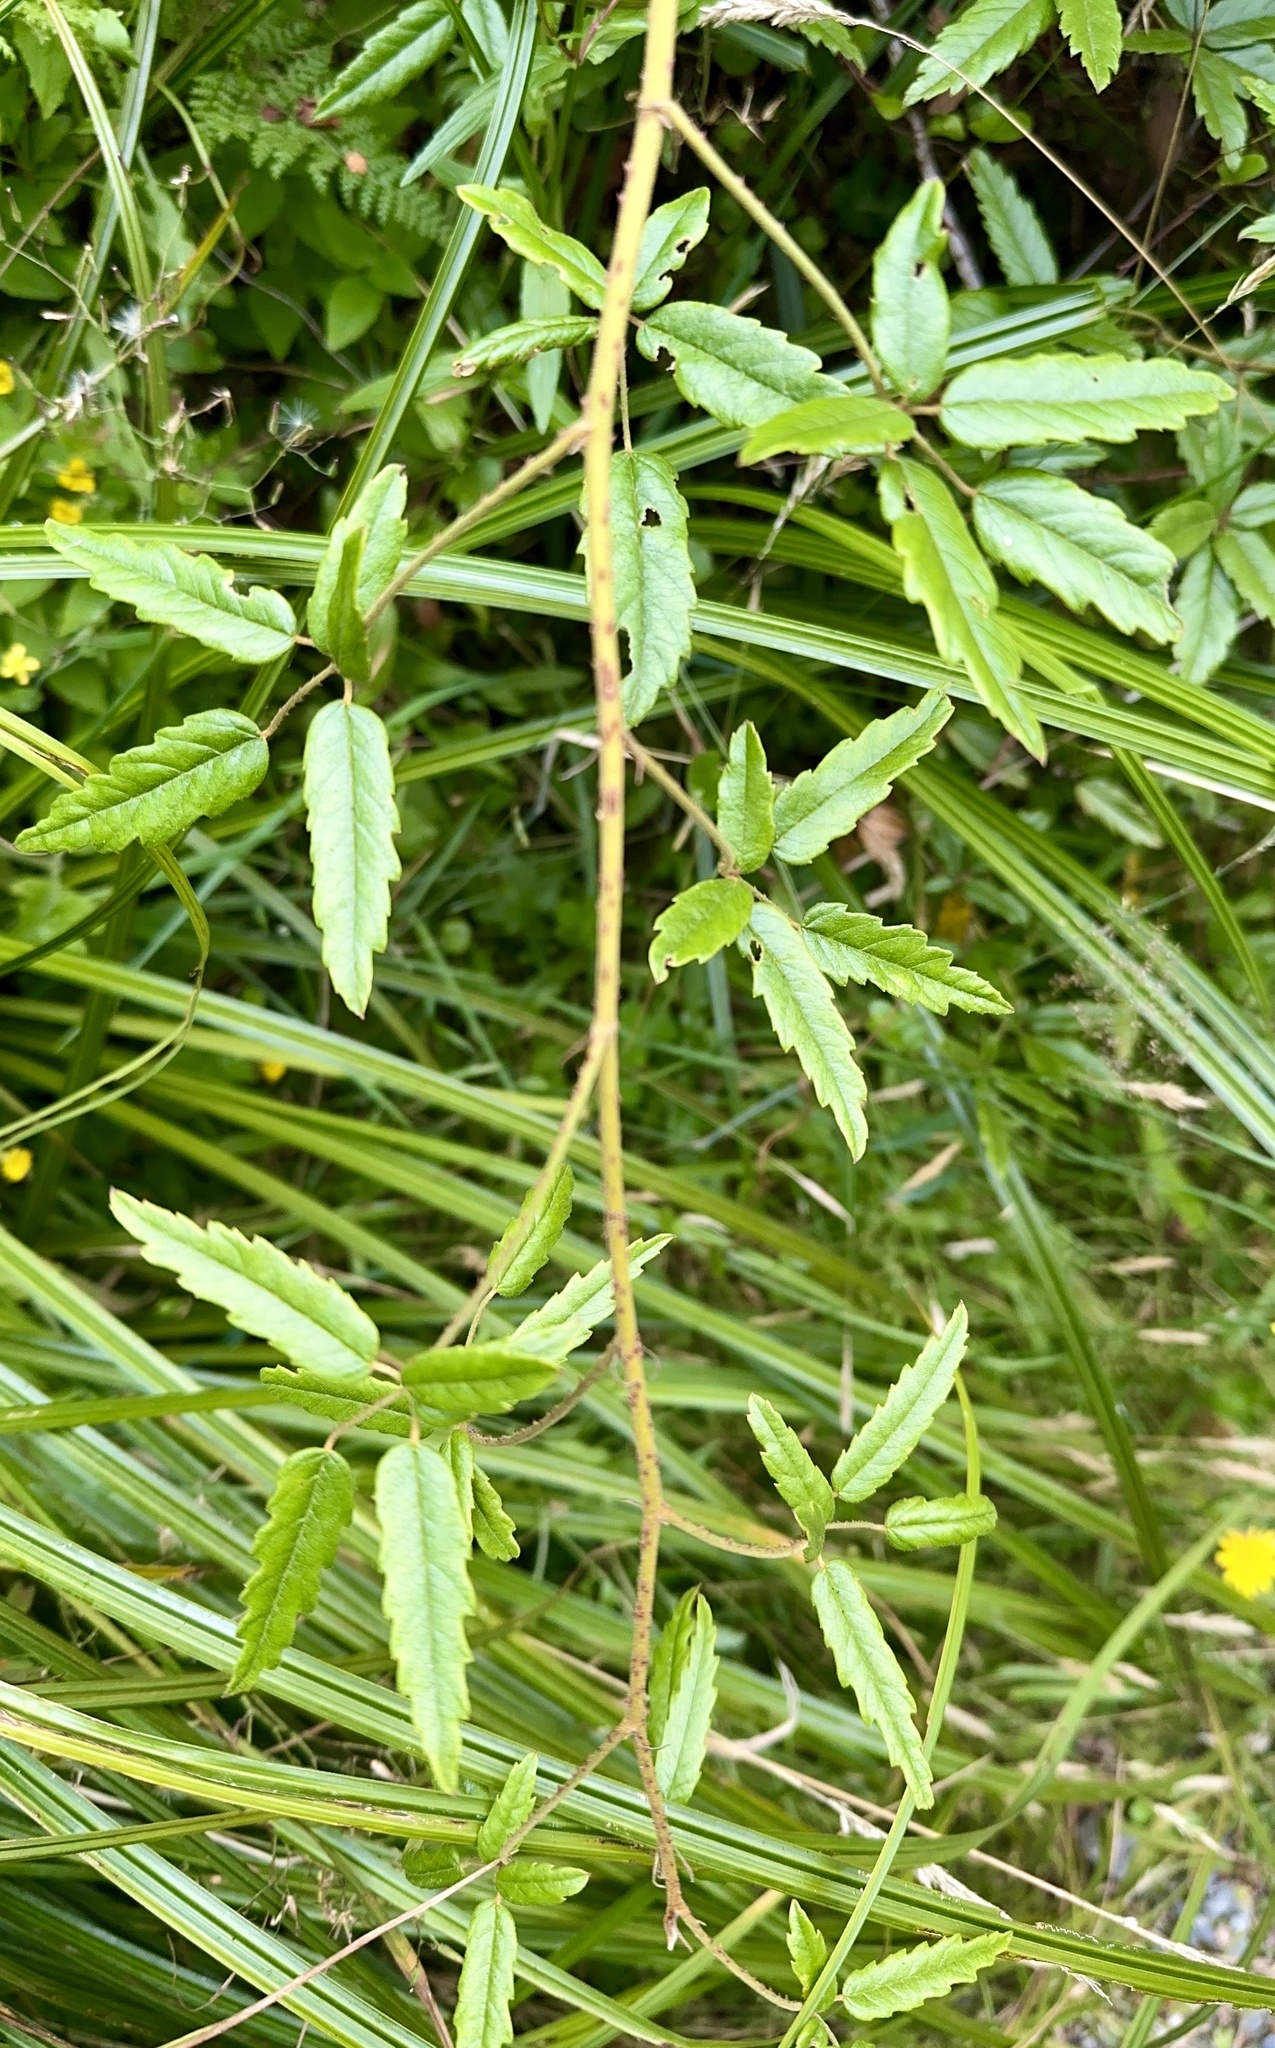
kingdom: Plantae
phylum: Tracheophyta
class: Magnoliopsida
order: Rosales
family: Rosaceae
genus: Rubus
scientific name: Rubus schmidelioides
